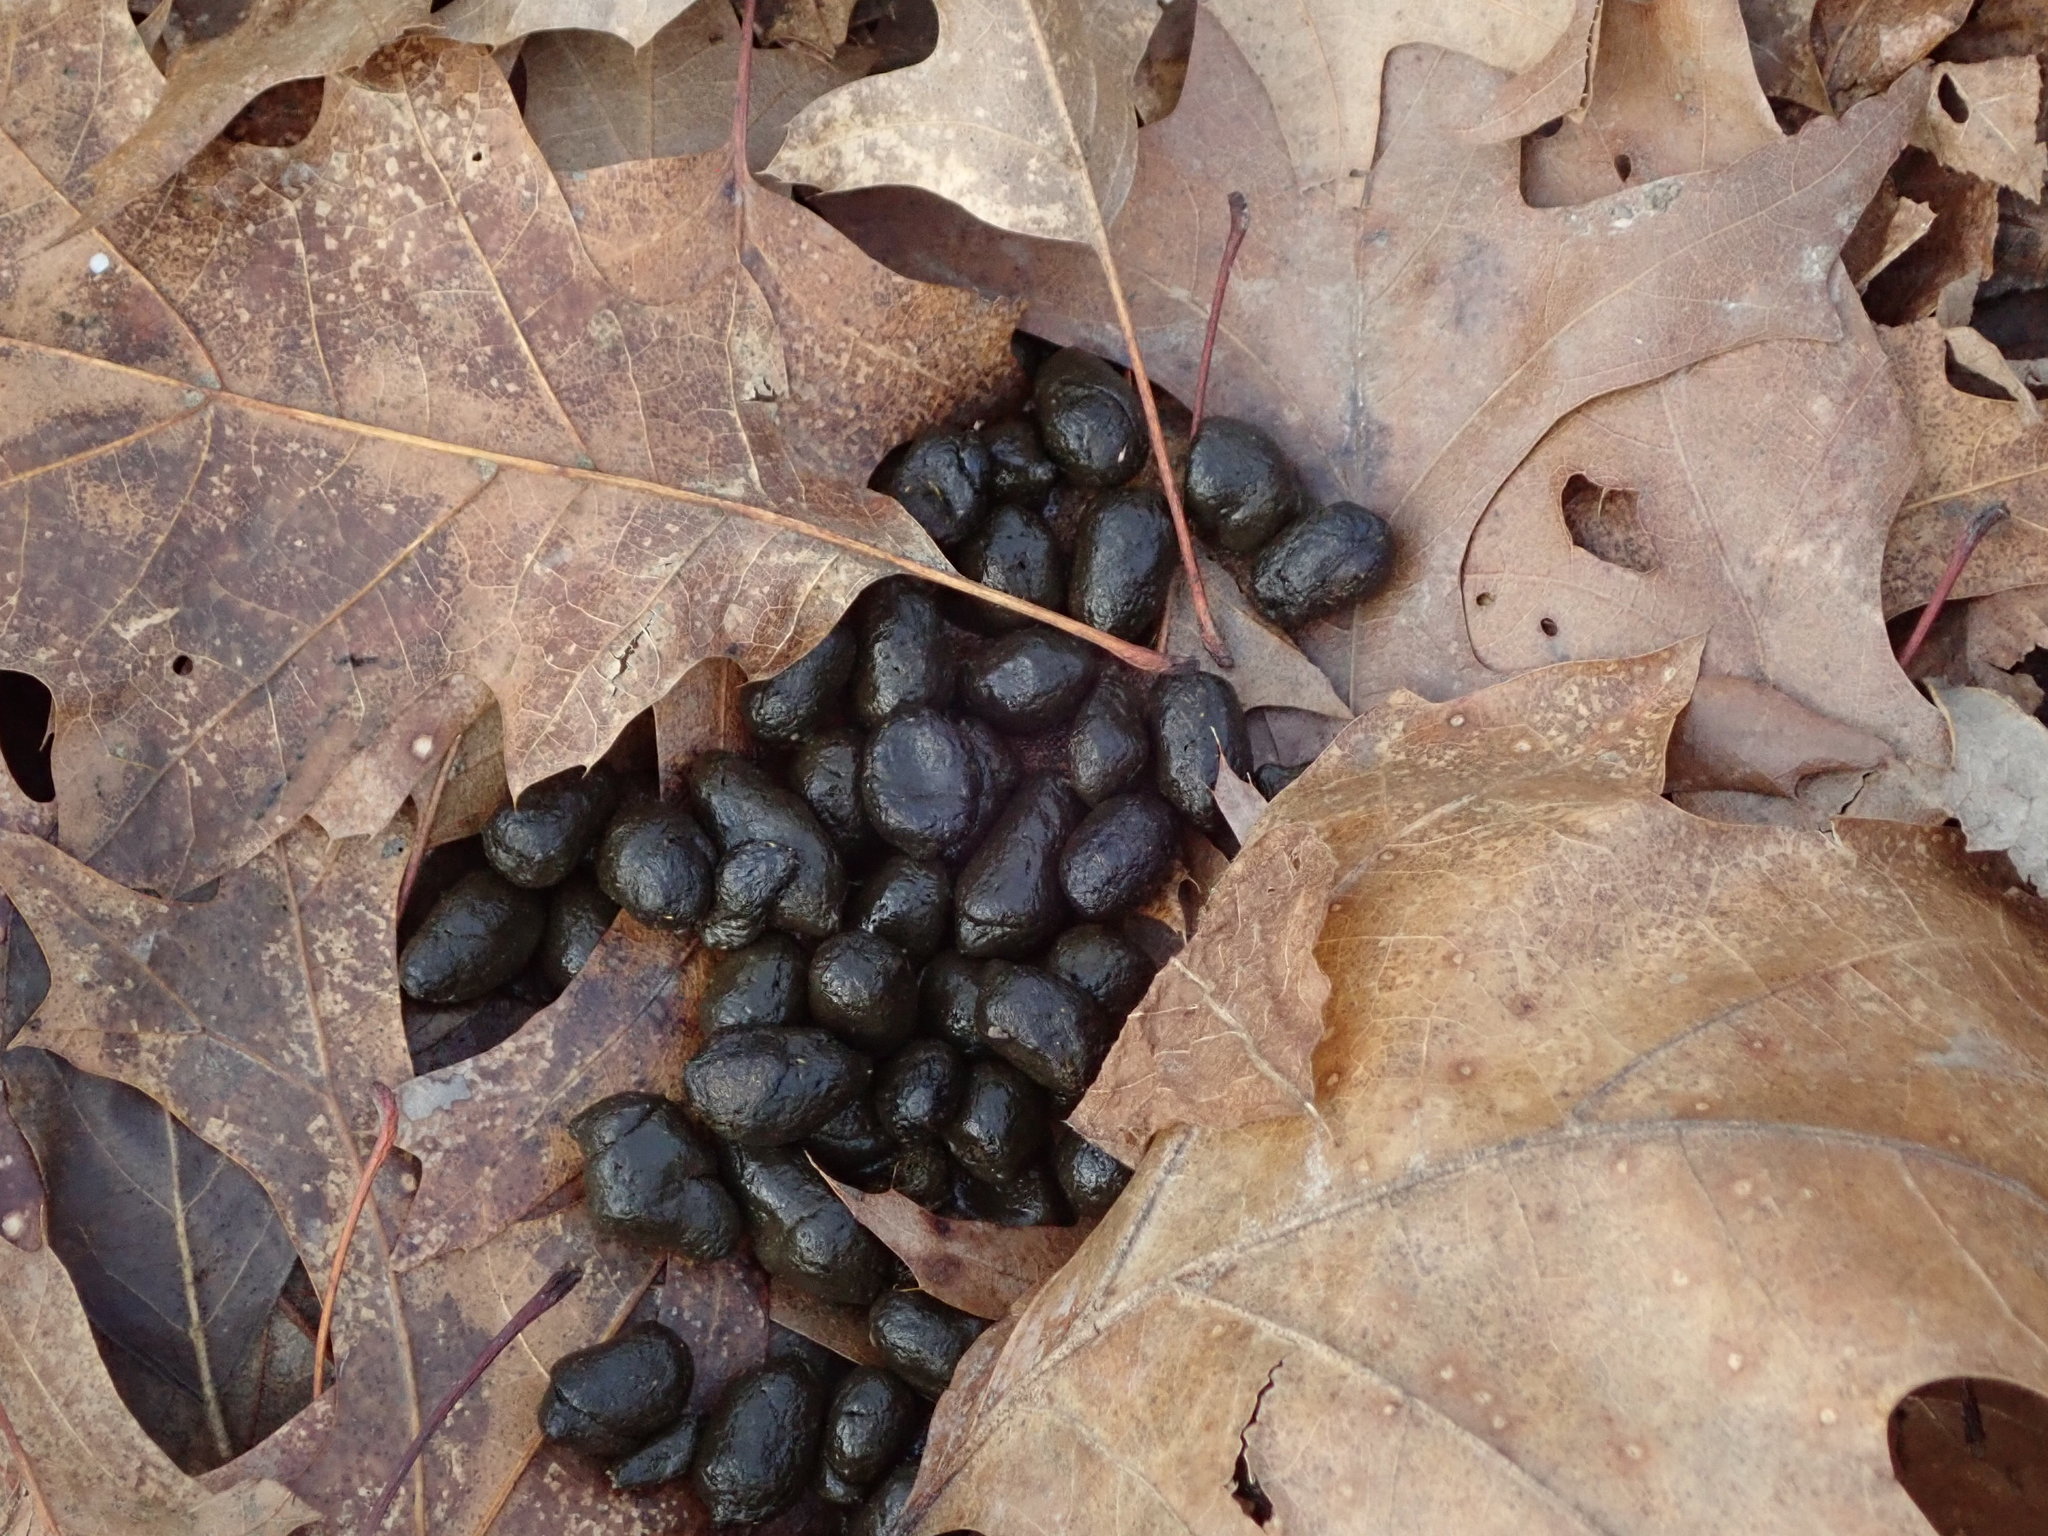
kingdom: Animalia
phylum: Chordata
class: Mammalia
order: Artiodactyla
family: Cervidae
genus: Odocoileus
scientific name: Odocoileus virginianus
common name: White-tailed deer
